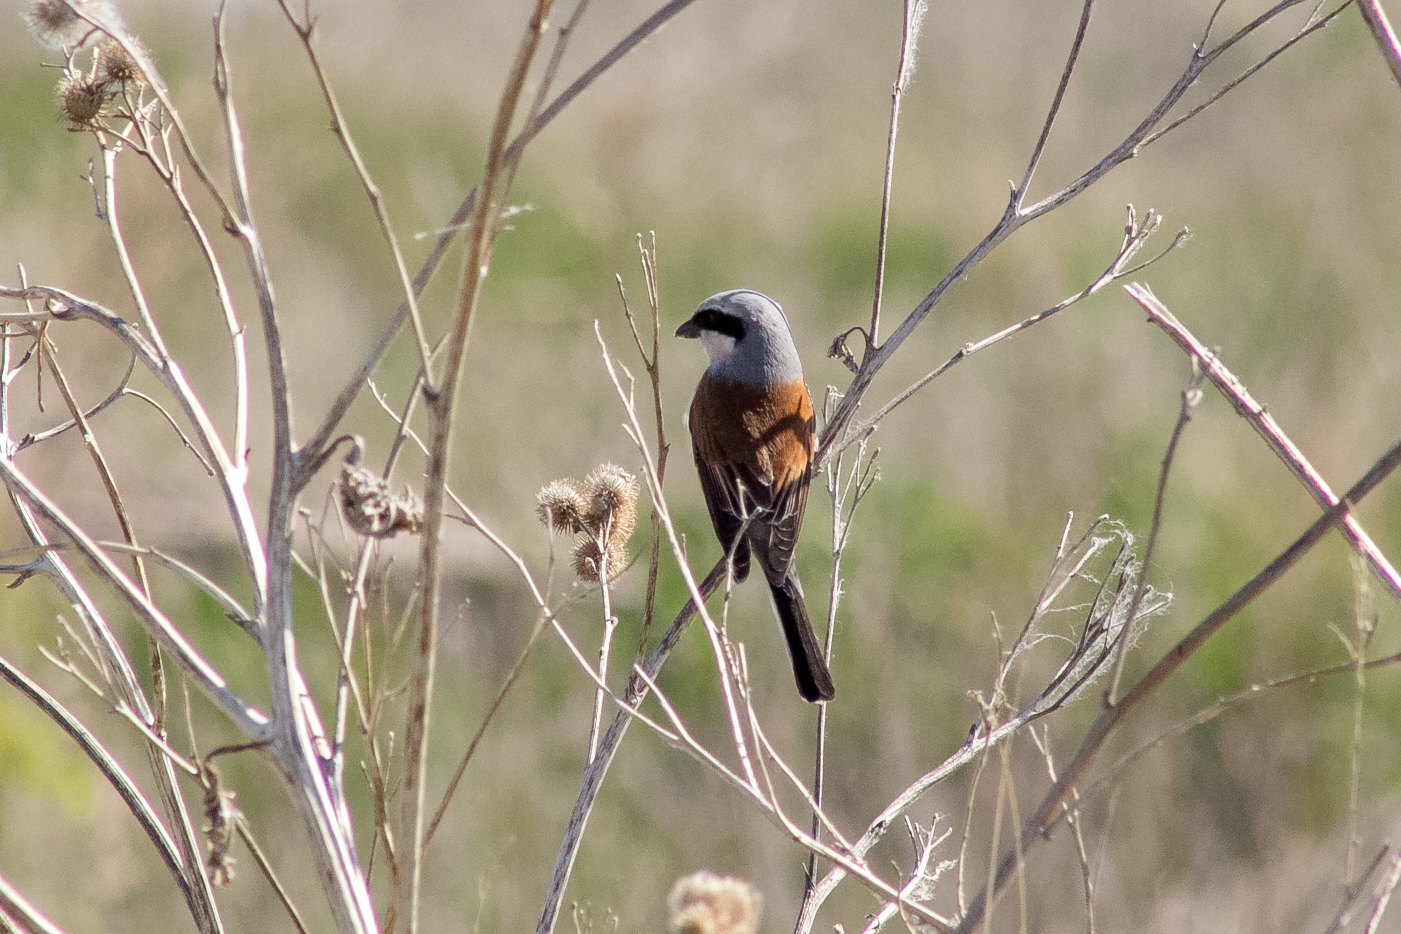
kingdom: Animalia
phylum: Chordata
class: Aves
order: Passeriformes
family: Laniidae
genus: Lanius
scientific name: Lanius collurio
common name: Red-backed shrike
